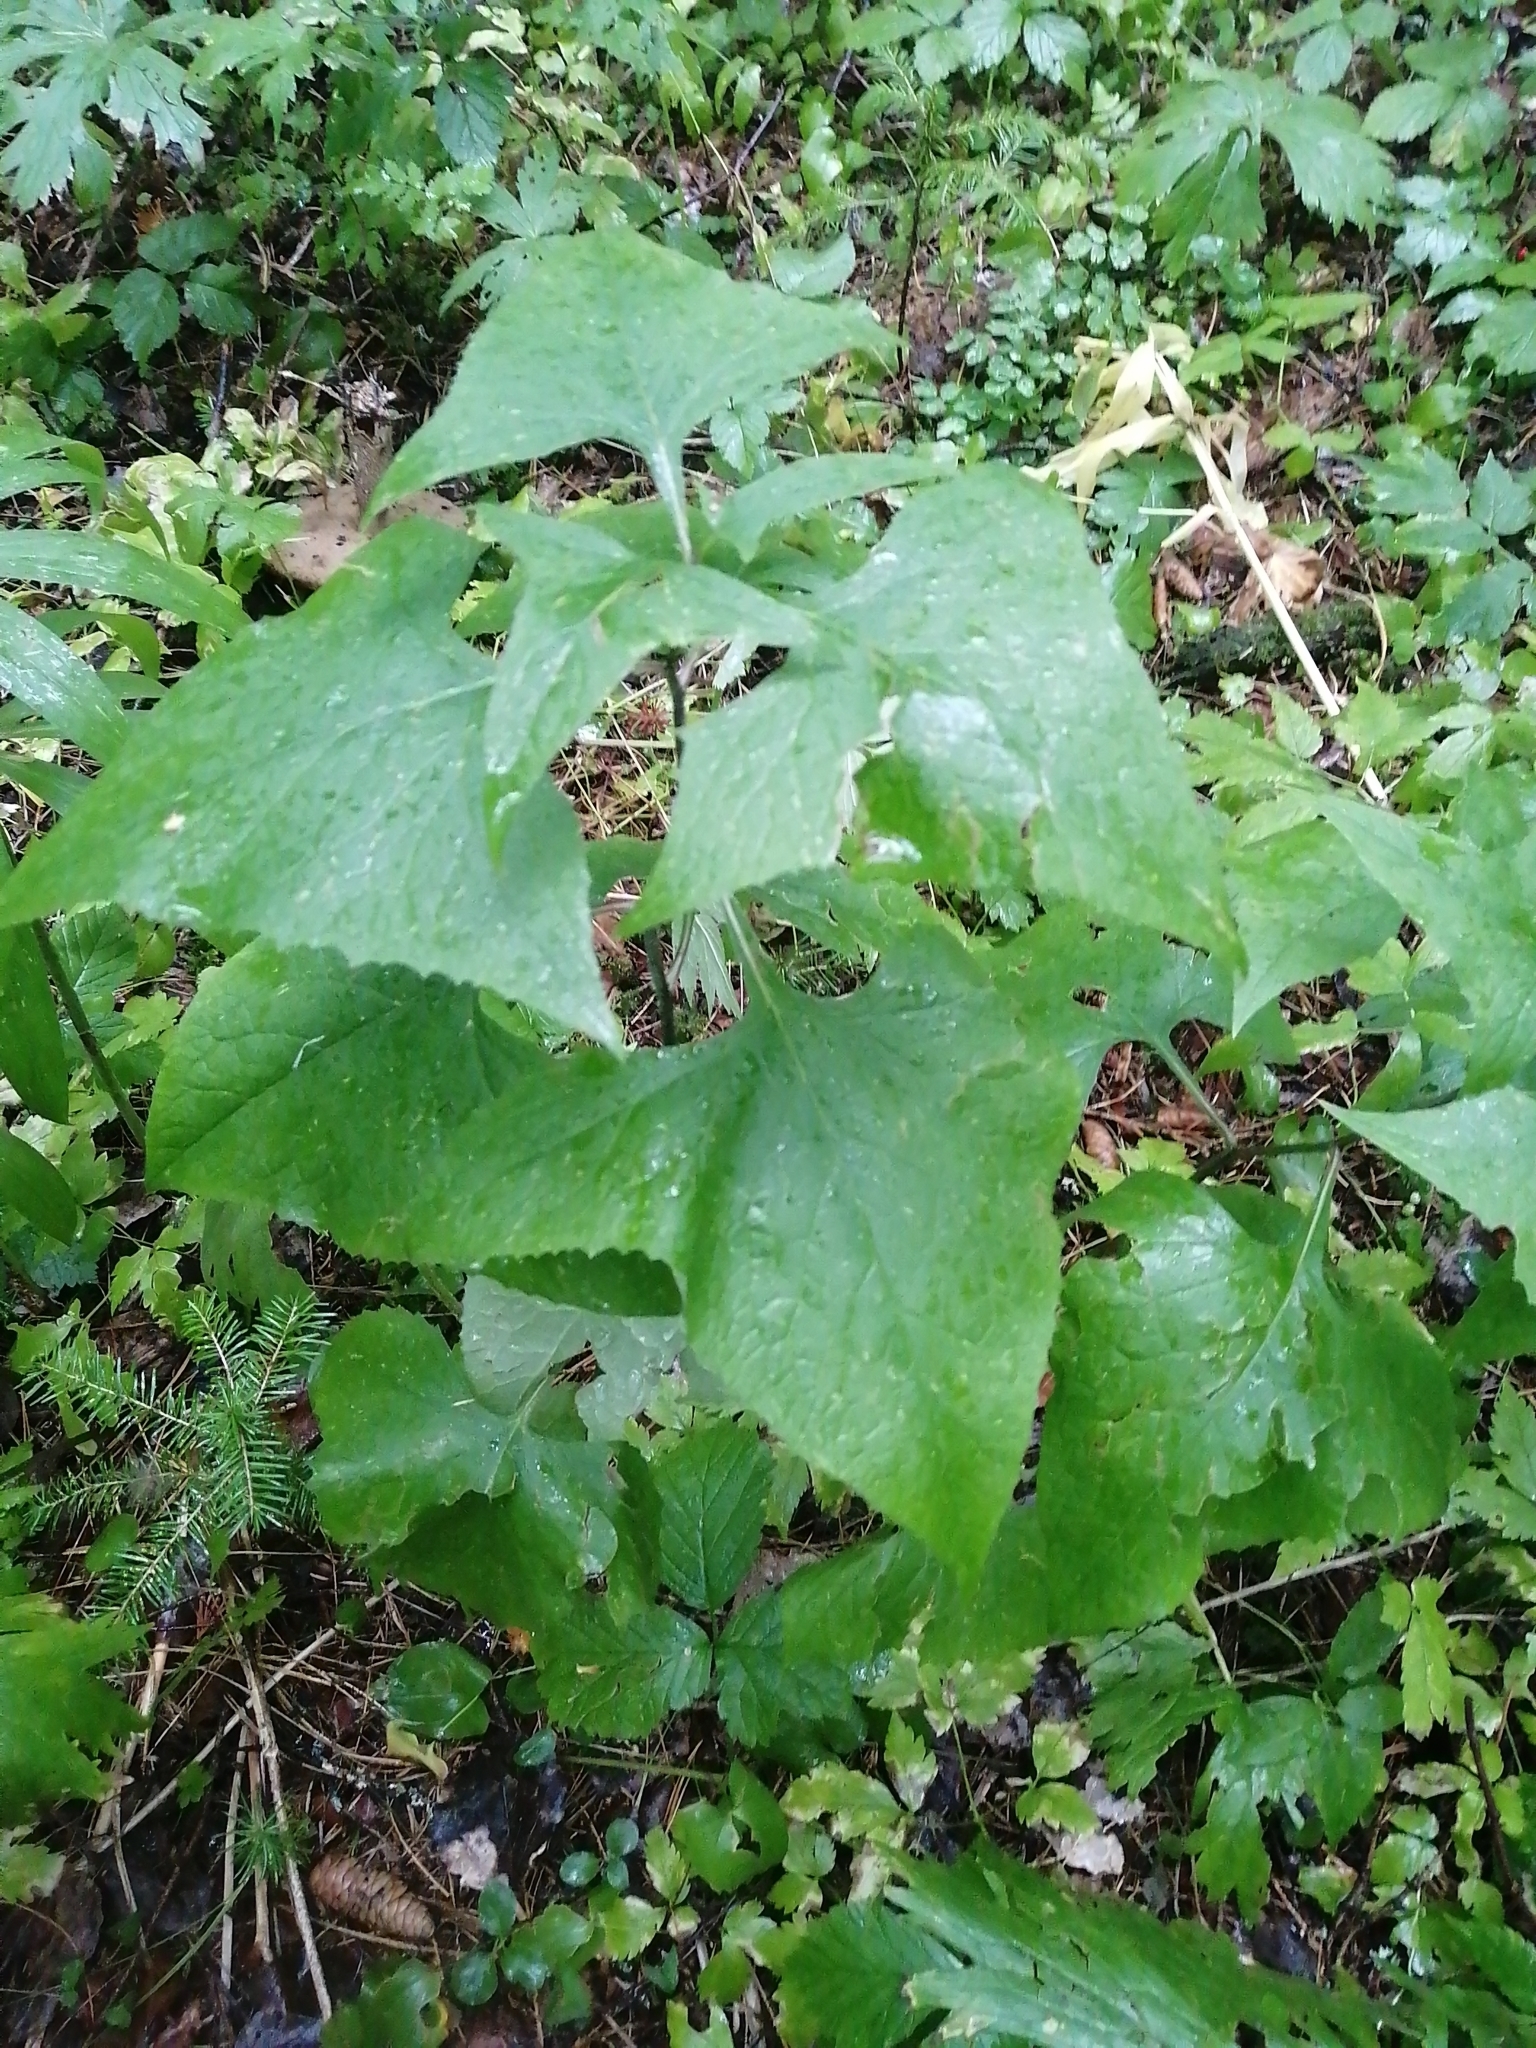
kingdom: Plantae
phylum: Tracheophyta
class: Magnoliopsida
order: Asterales
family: Asteraceae
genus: Parasenecio
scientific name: Parasenecio hastatus
